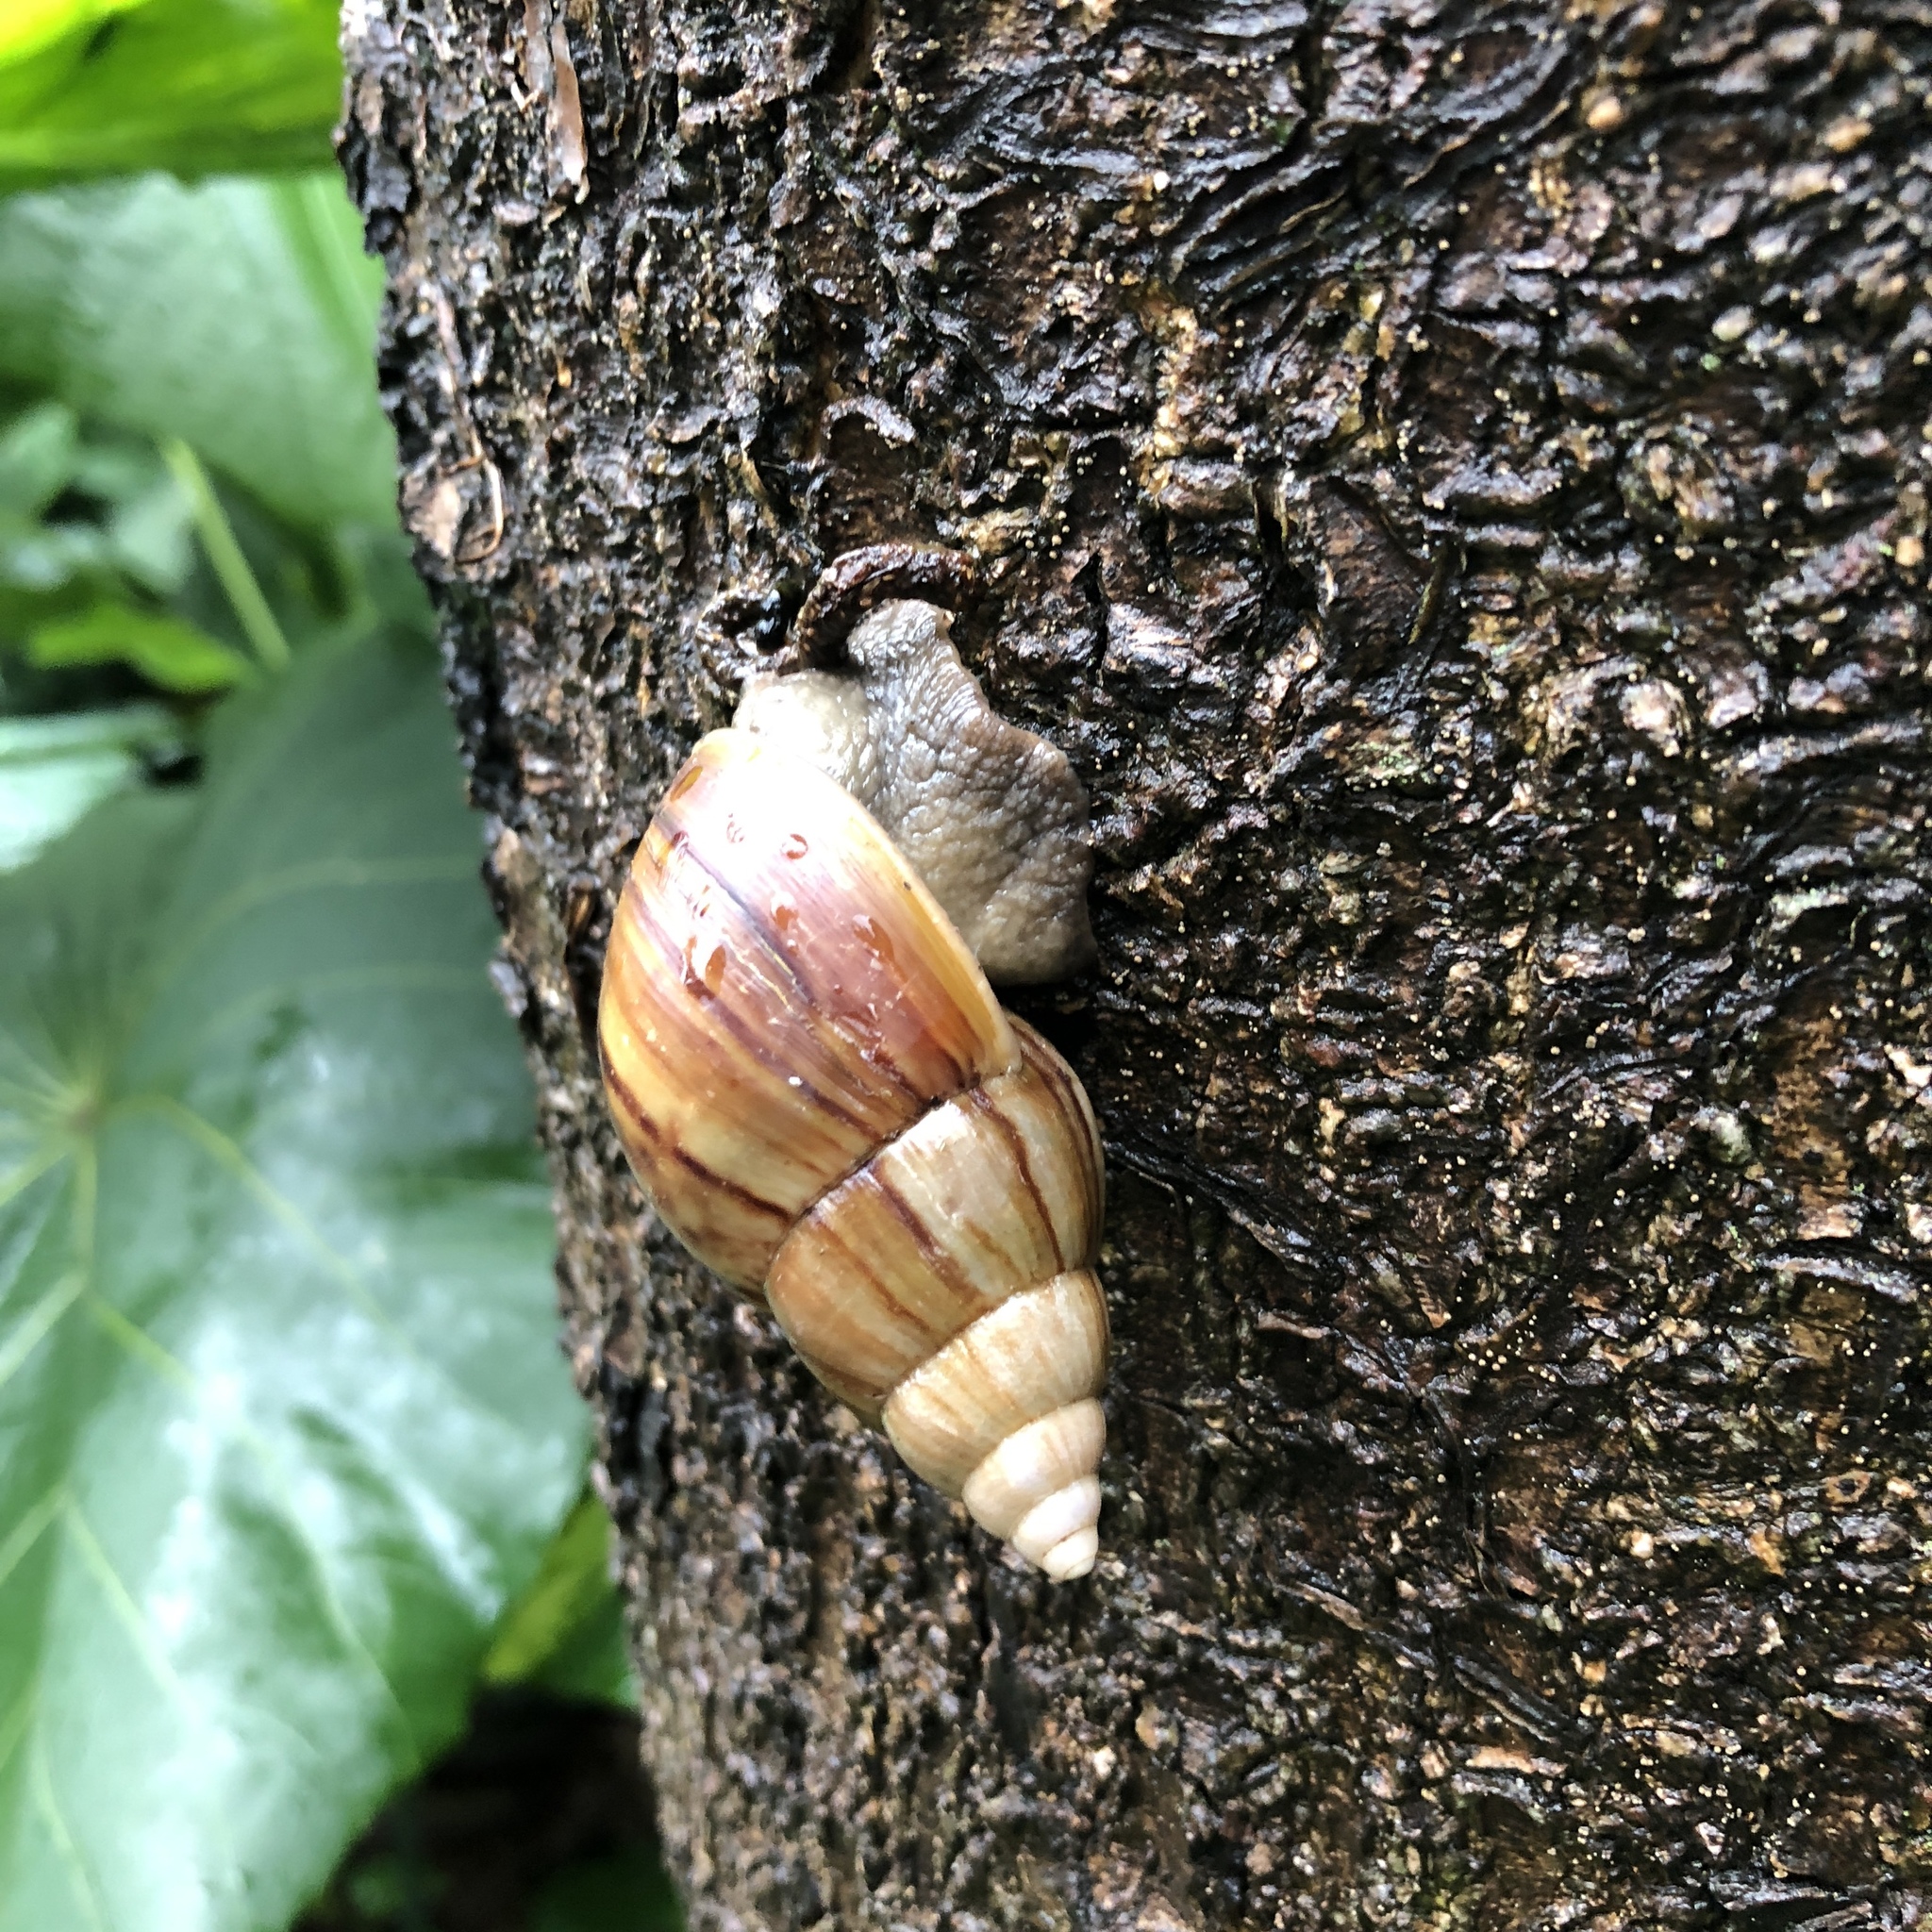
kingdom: Animalia
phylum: Mollusca
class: Gastropoda
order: Stylommatophora
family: Achatinidae
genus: Lissachatina
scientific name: Lissachatina fulica
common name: Giant african snail
